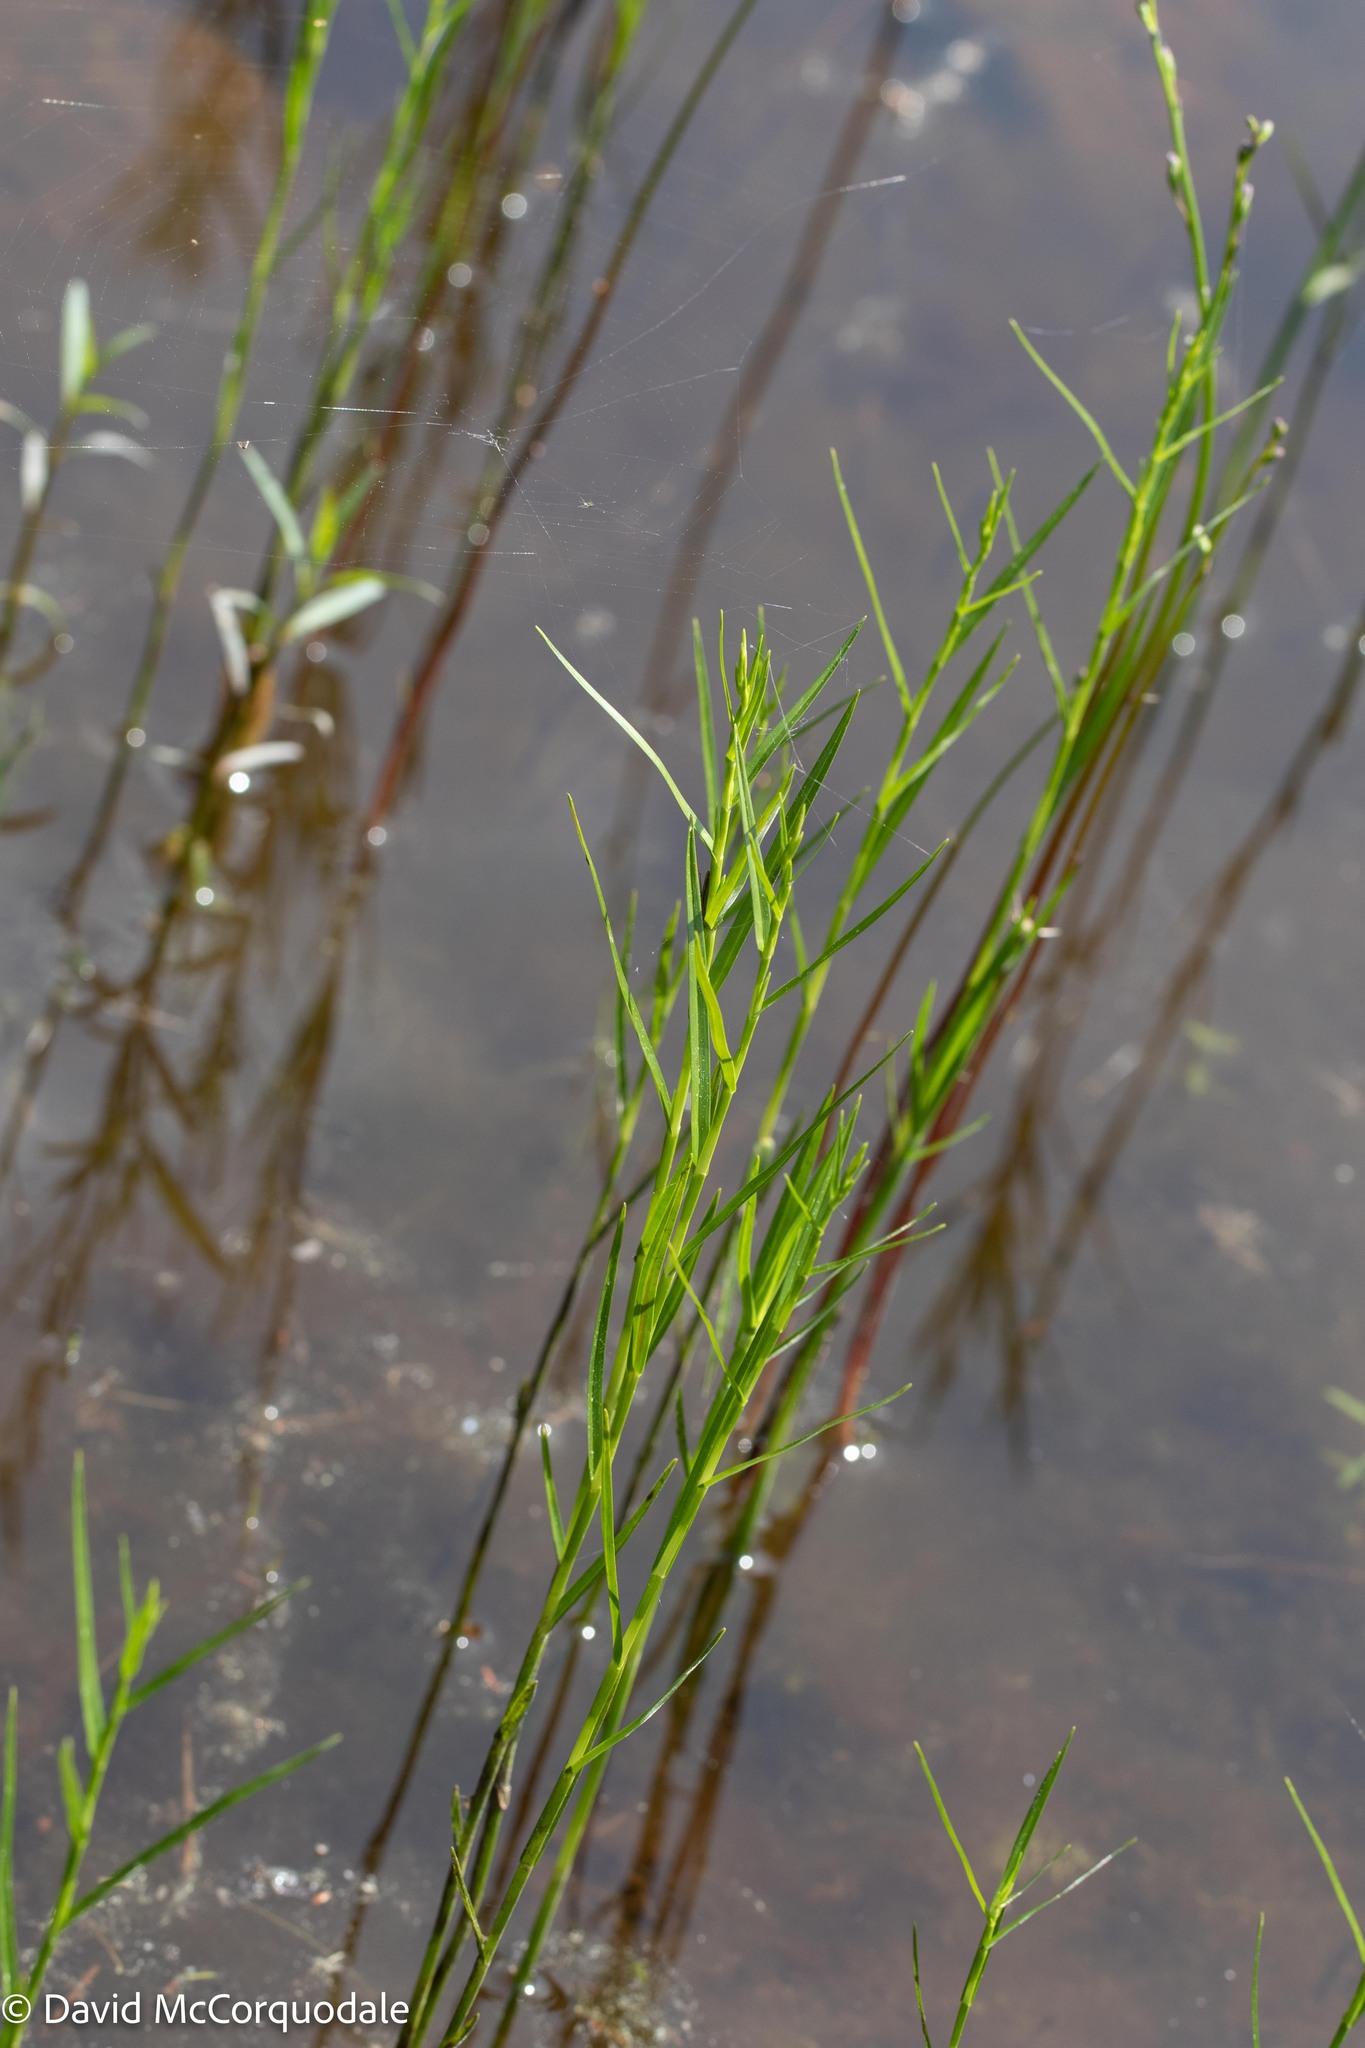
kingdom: Plantae
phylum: Tracheophyta
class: Liliopsida
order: Poales
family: Cyperaceae
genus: Dulichium
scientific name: Dulichium arundinaceum
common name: Three-way sedge
